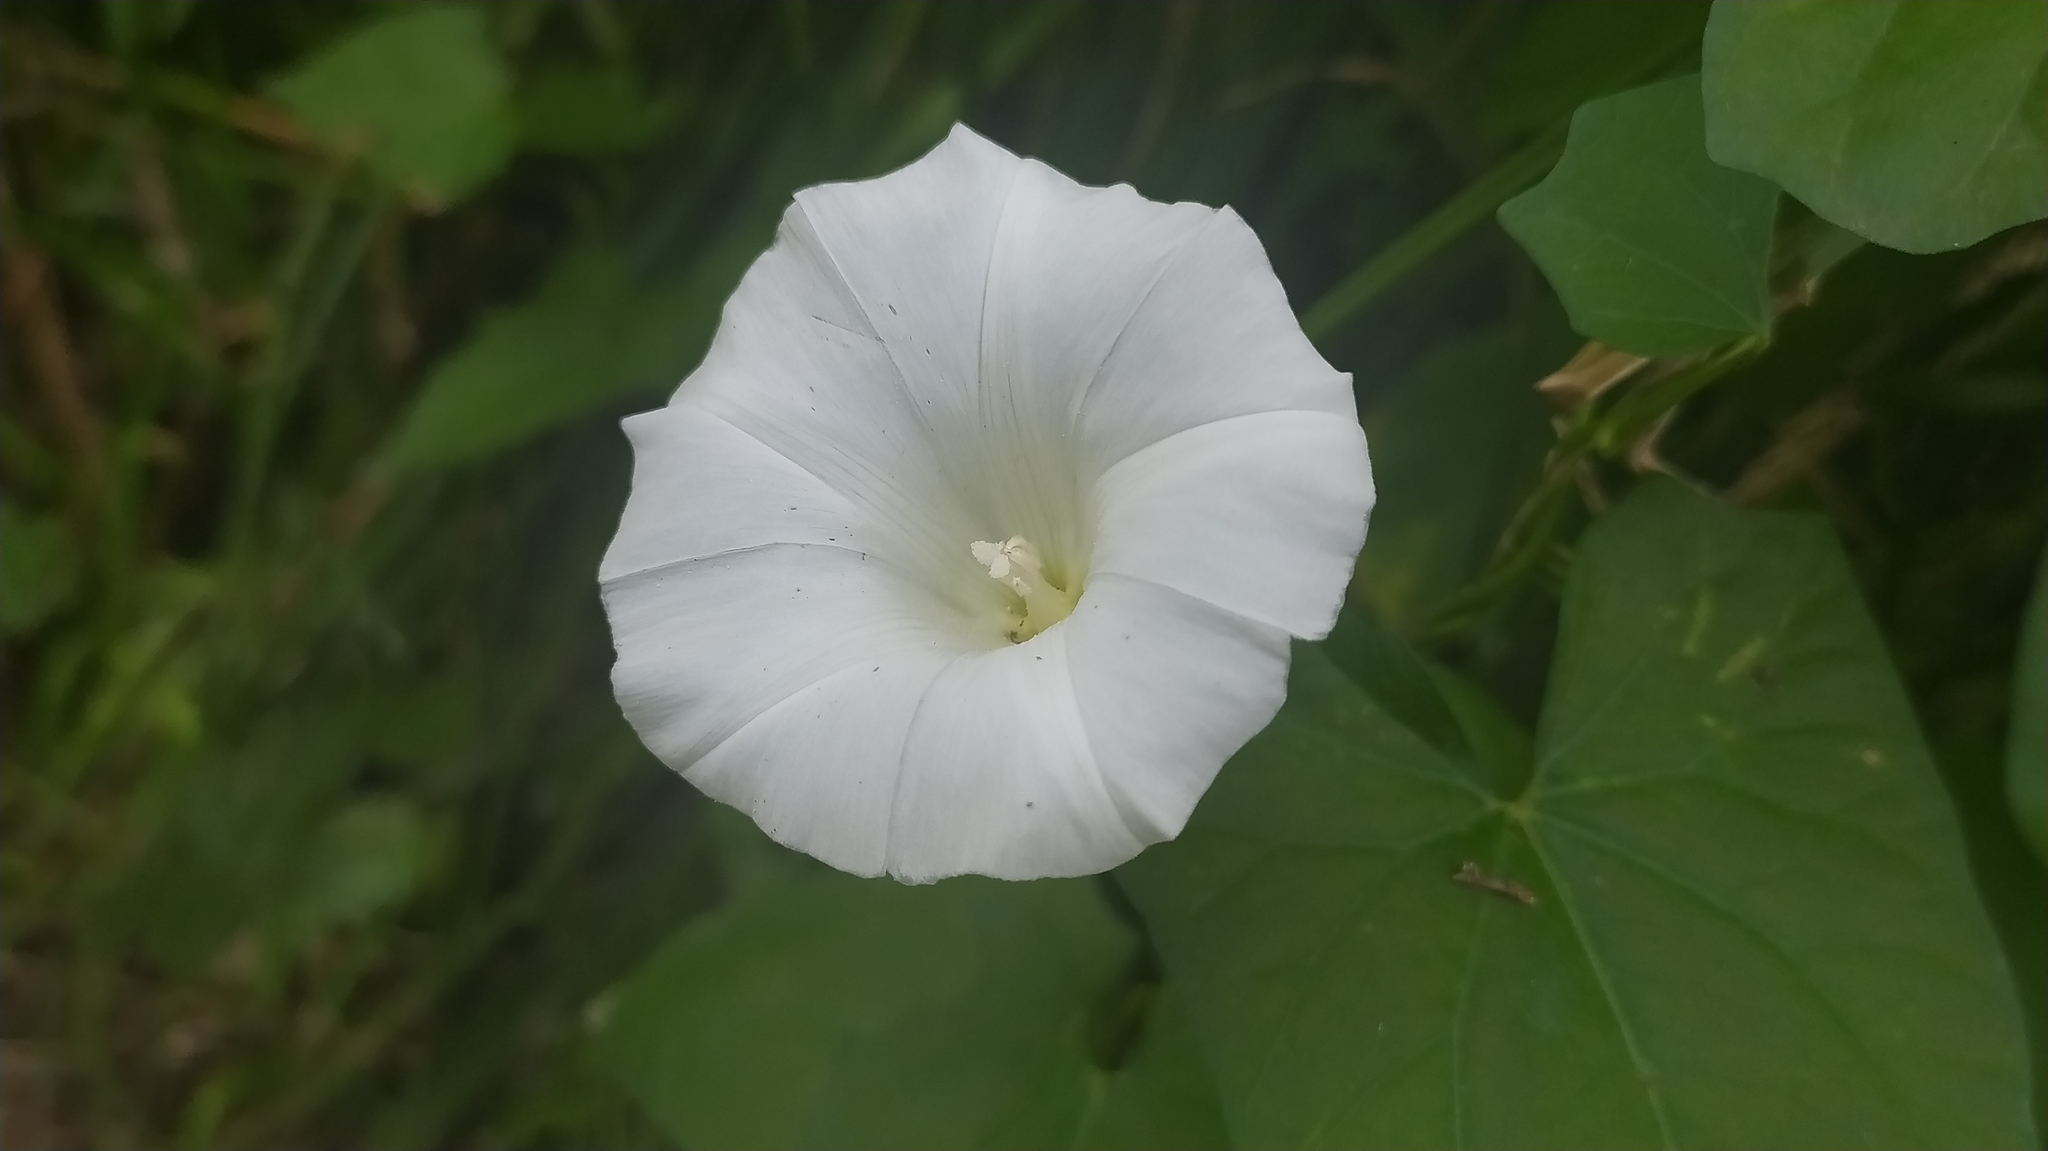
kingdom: Plantae
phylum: Tracheophyta
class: Magnoliopsida
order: Solanales
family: Convolvulaceae
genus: Calystegia
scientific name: Calystegia sepium
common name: Hedge bindweed
